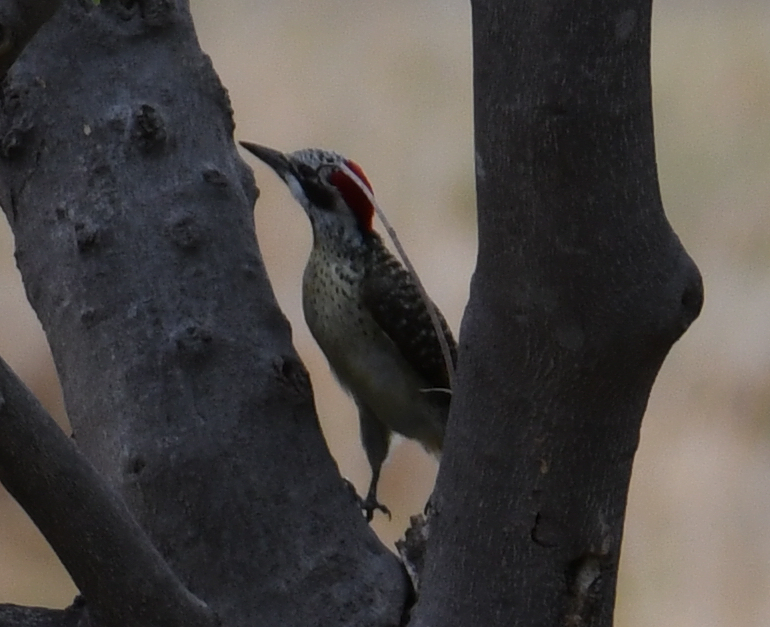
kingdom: Animalia
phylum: Chordata
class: Aves
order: Piciformes
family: Picidae
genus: Campethera
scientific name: Campethera bennettii
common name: Bennett's woodpecker
